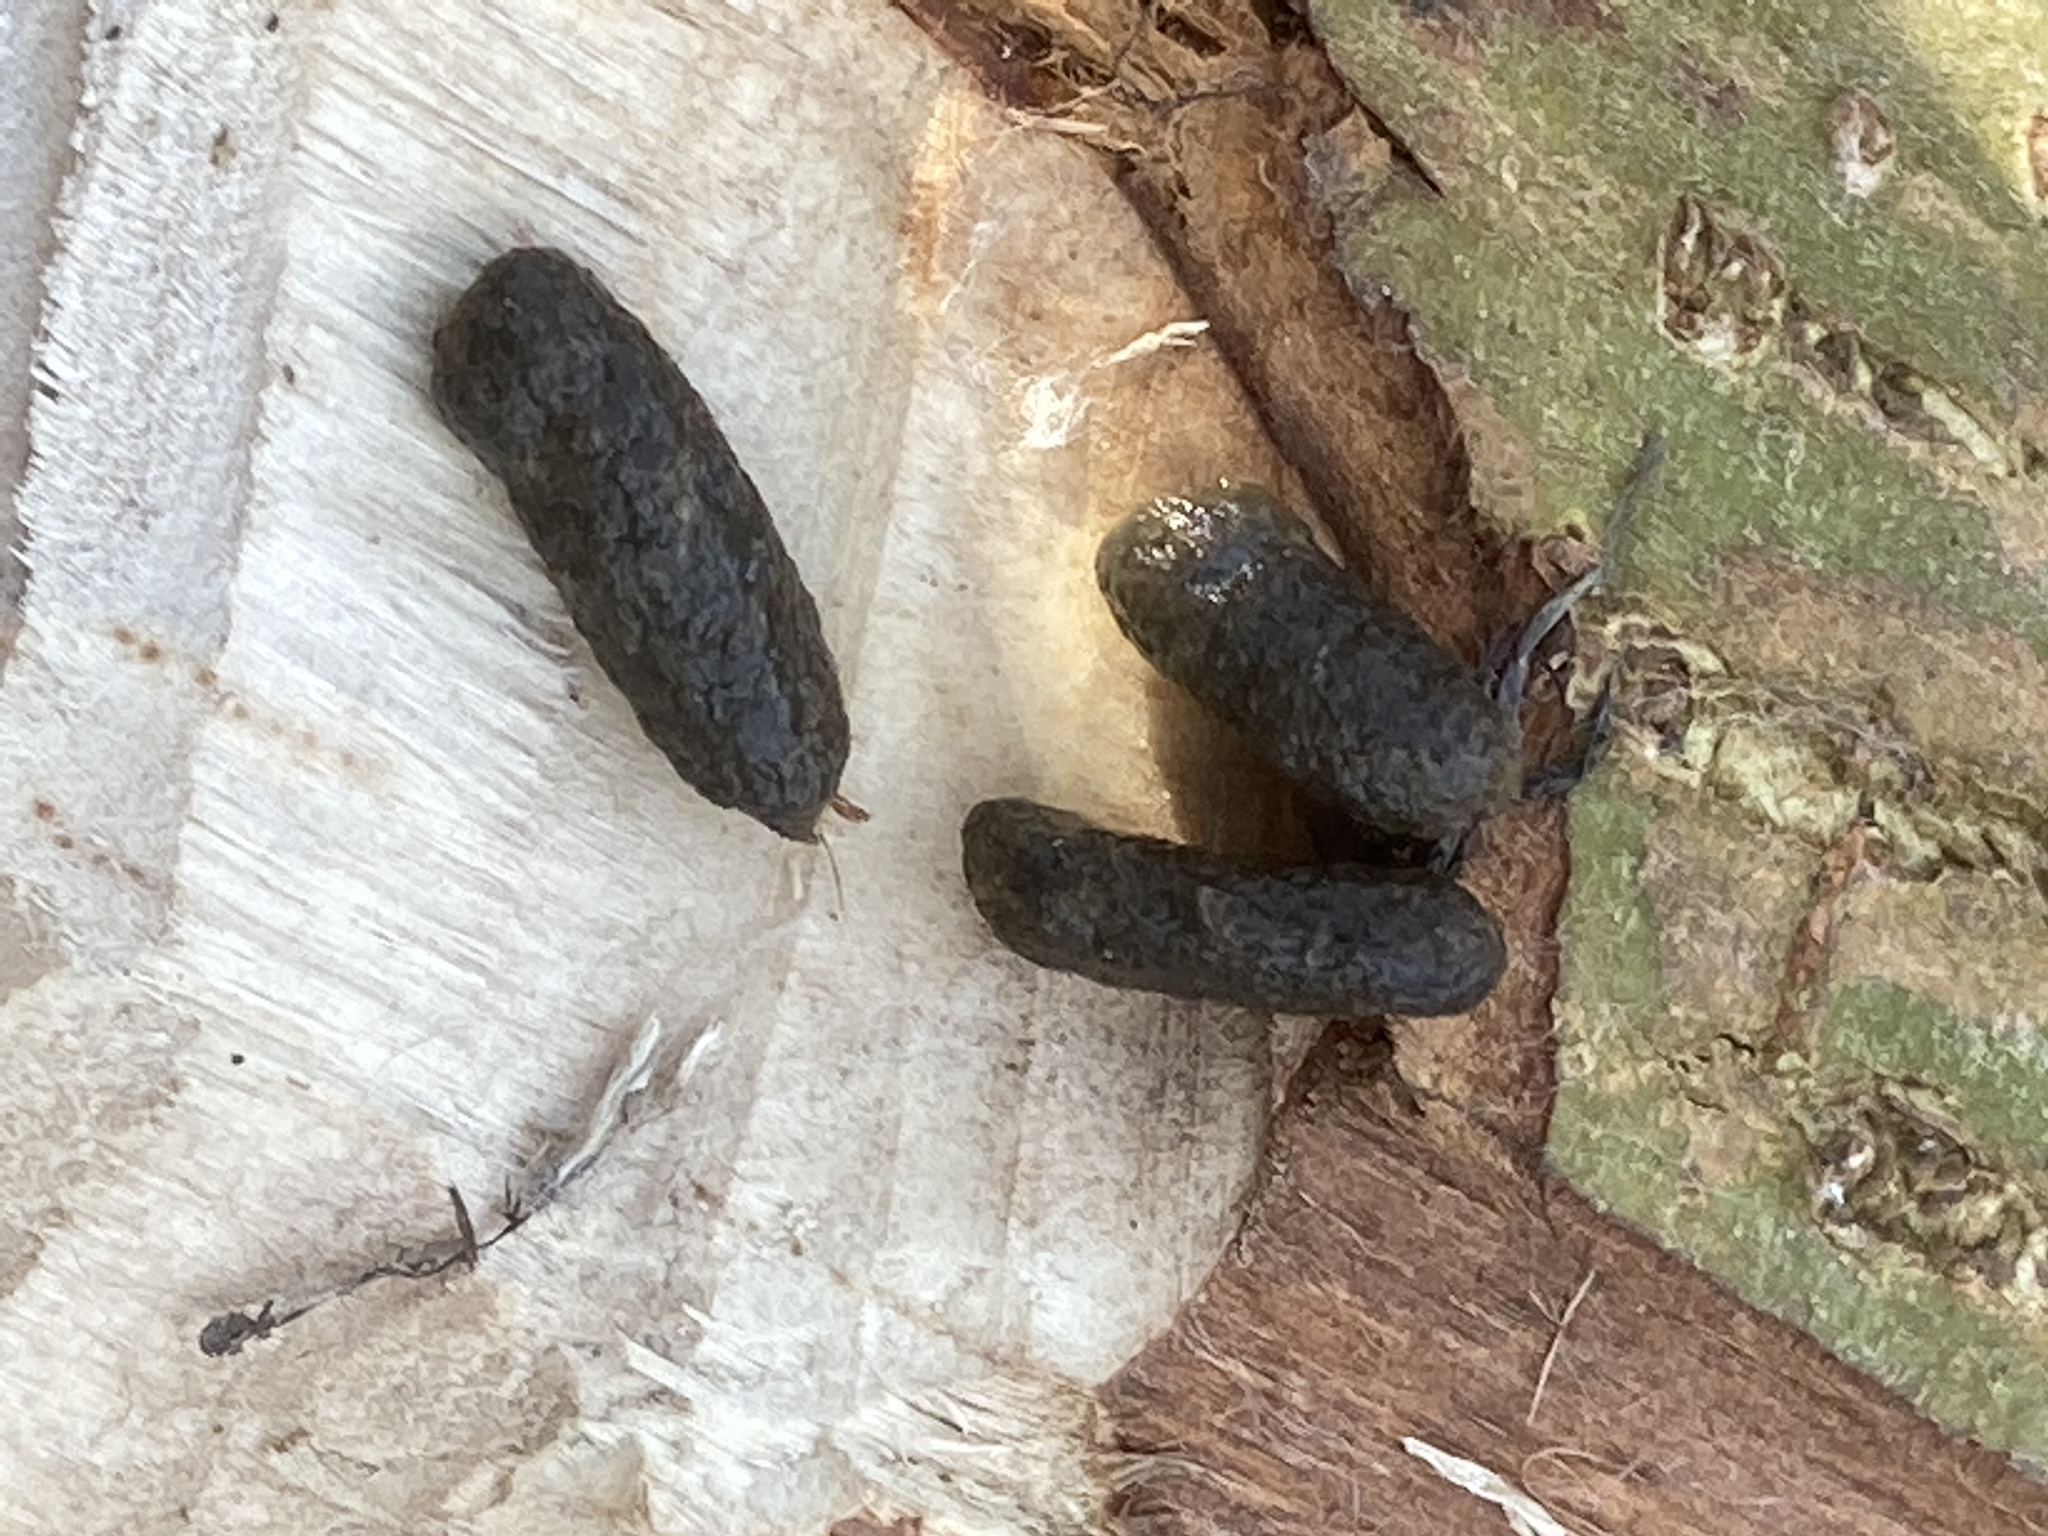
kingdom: Animalia
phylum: Chordata
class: Mammalia
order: Rodentia
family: Castoridae
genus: Castor
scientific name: Castor fiber
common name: Eurasian beaver
